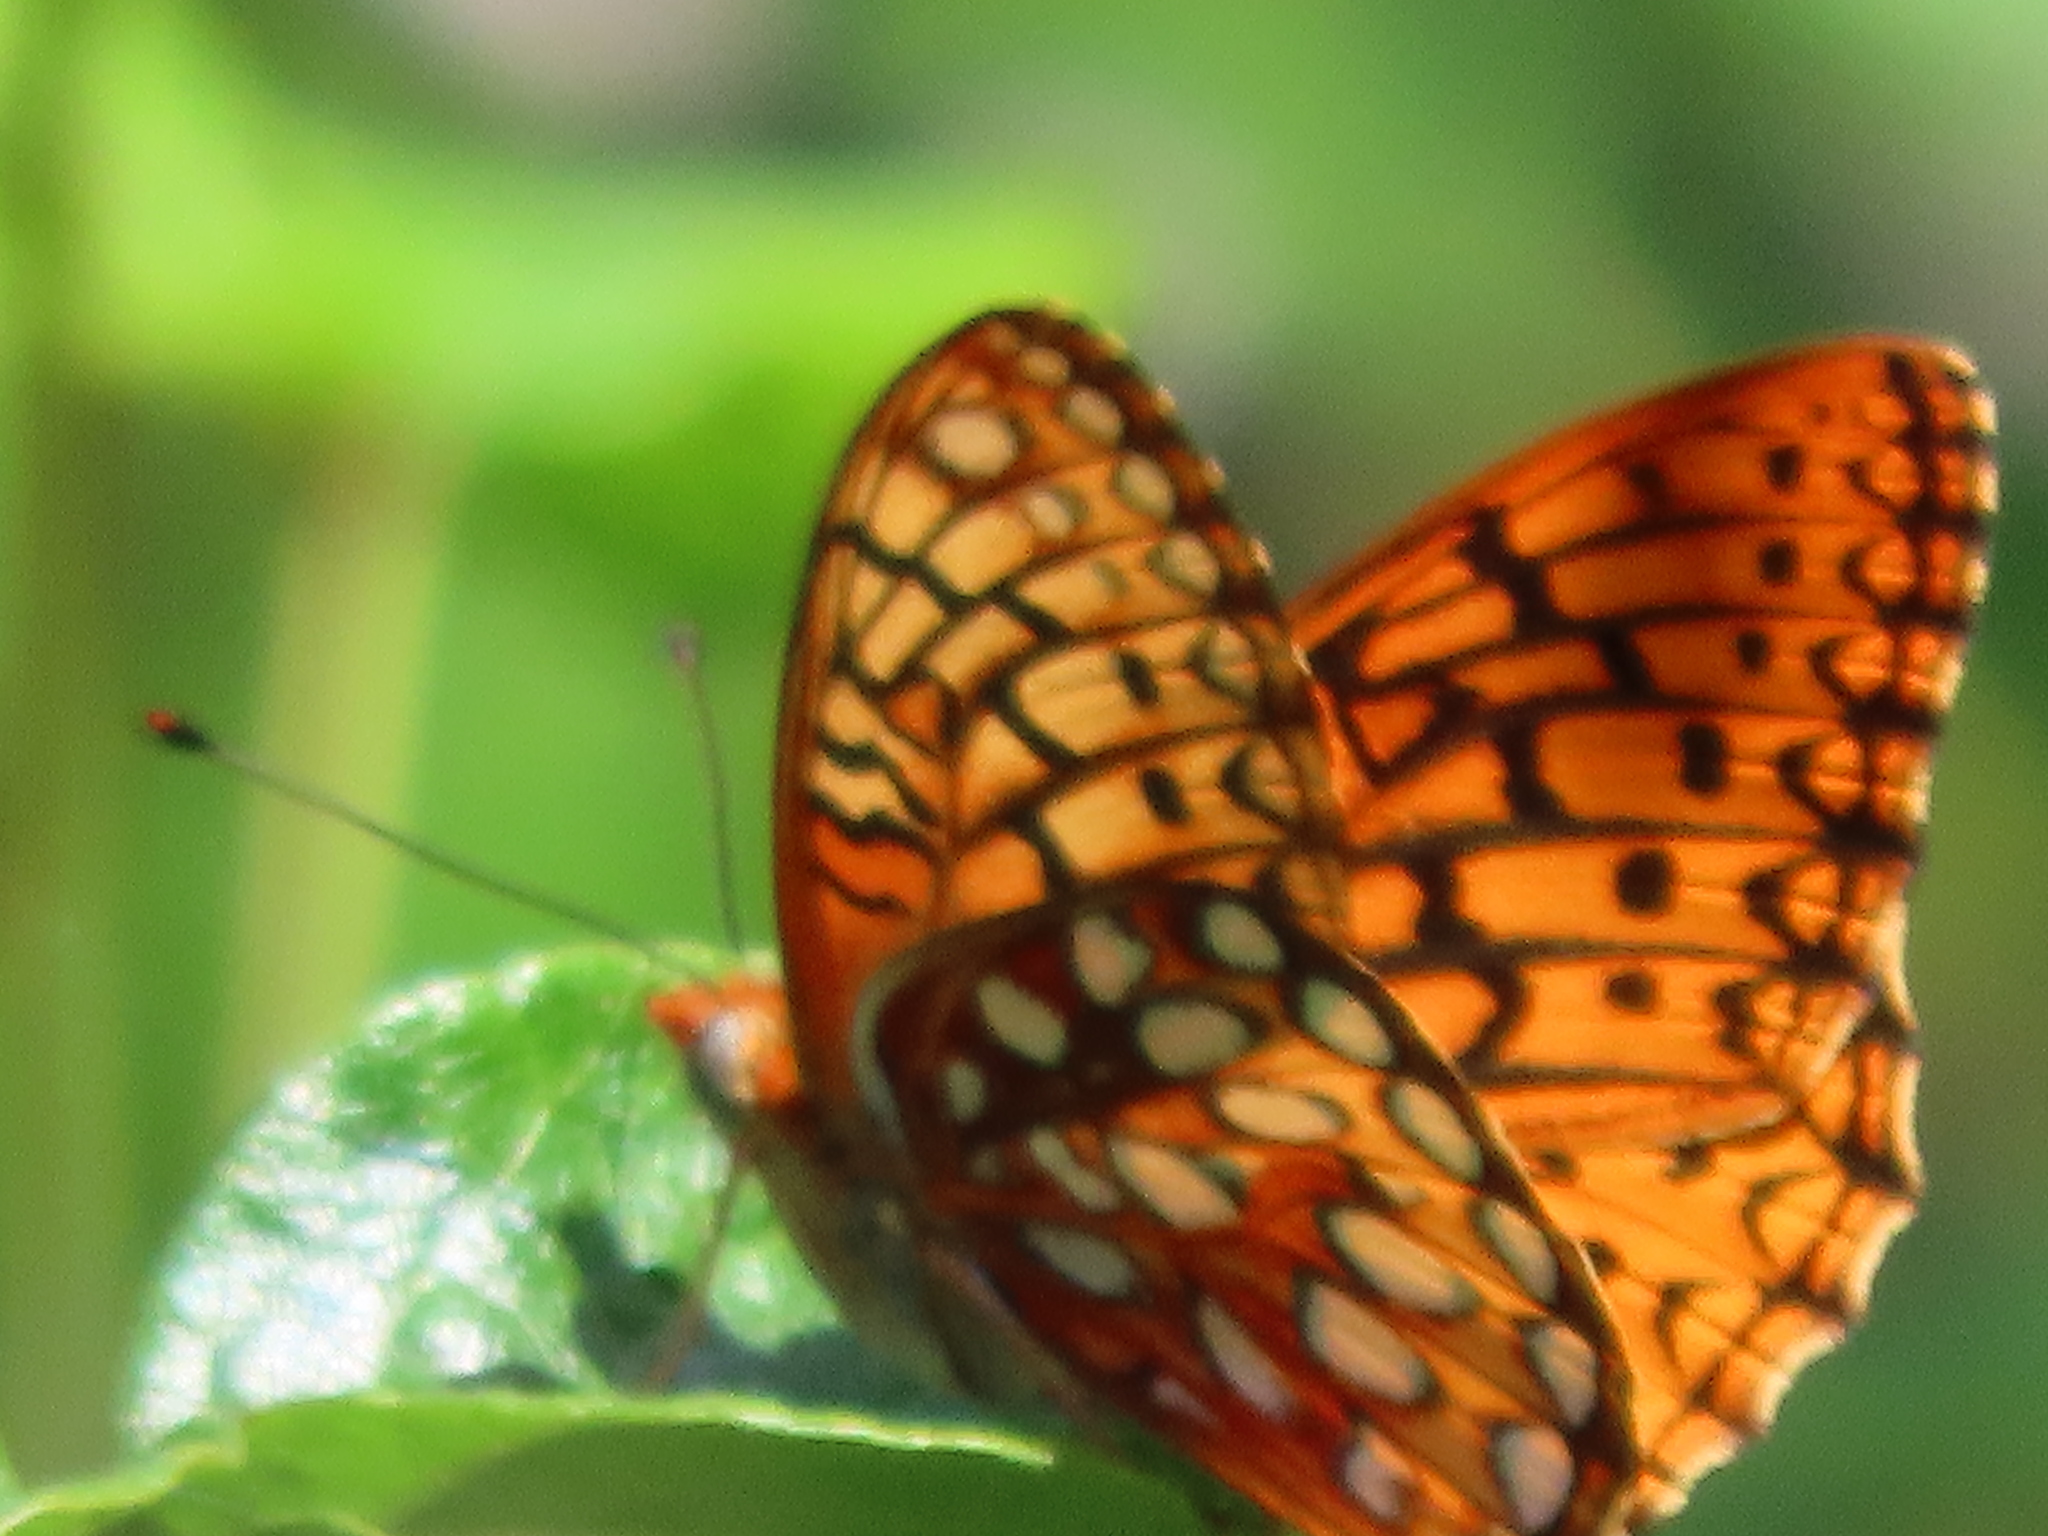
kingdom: Animalia
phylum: Arthropoda
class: Insecta
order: Lepidoptera
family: Nymphalidae
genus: Speyeria
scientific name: Speyeria callippe
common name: Callippe fritillary
